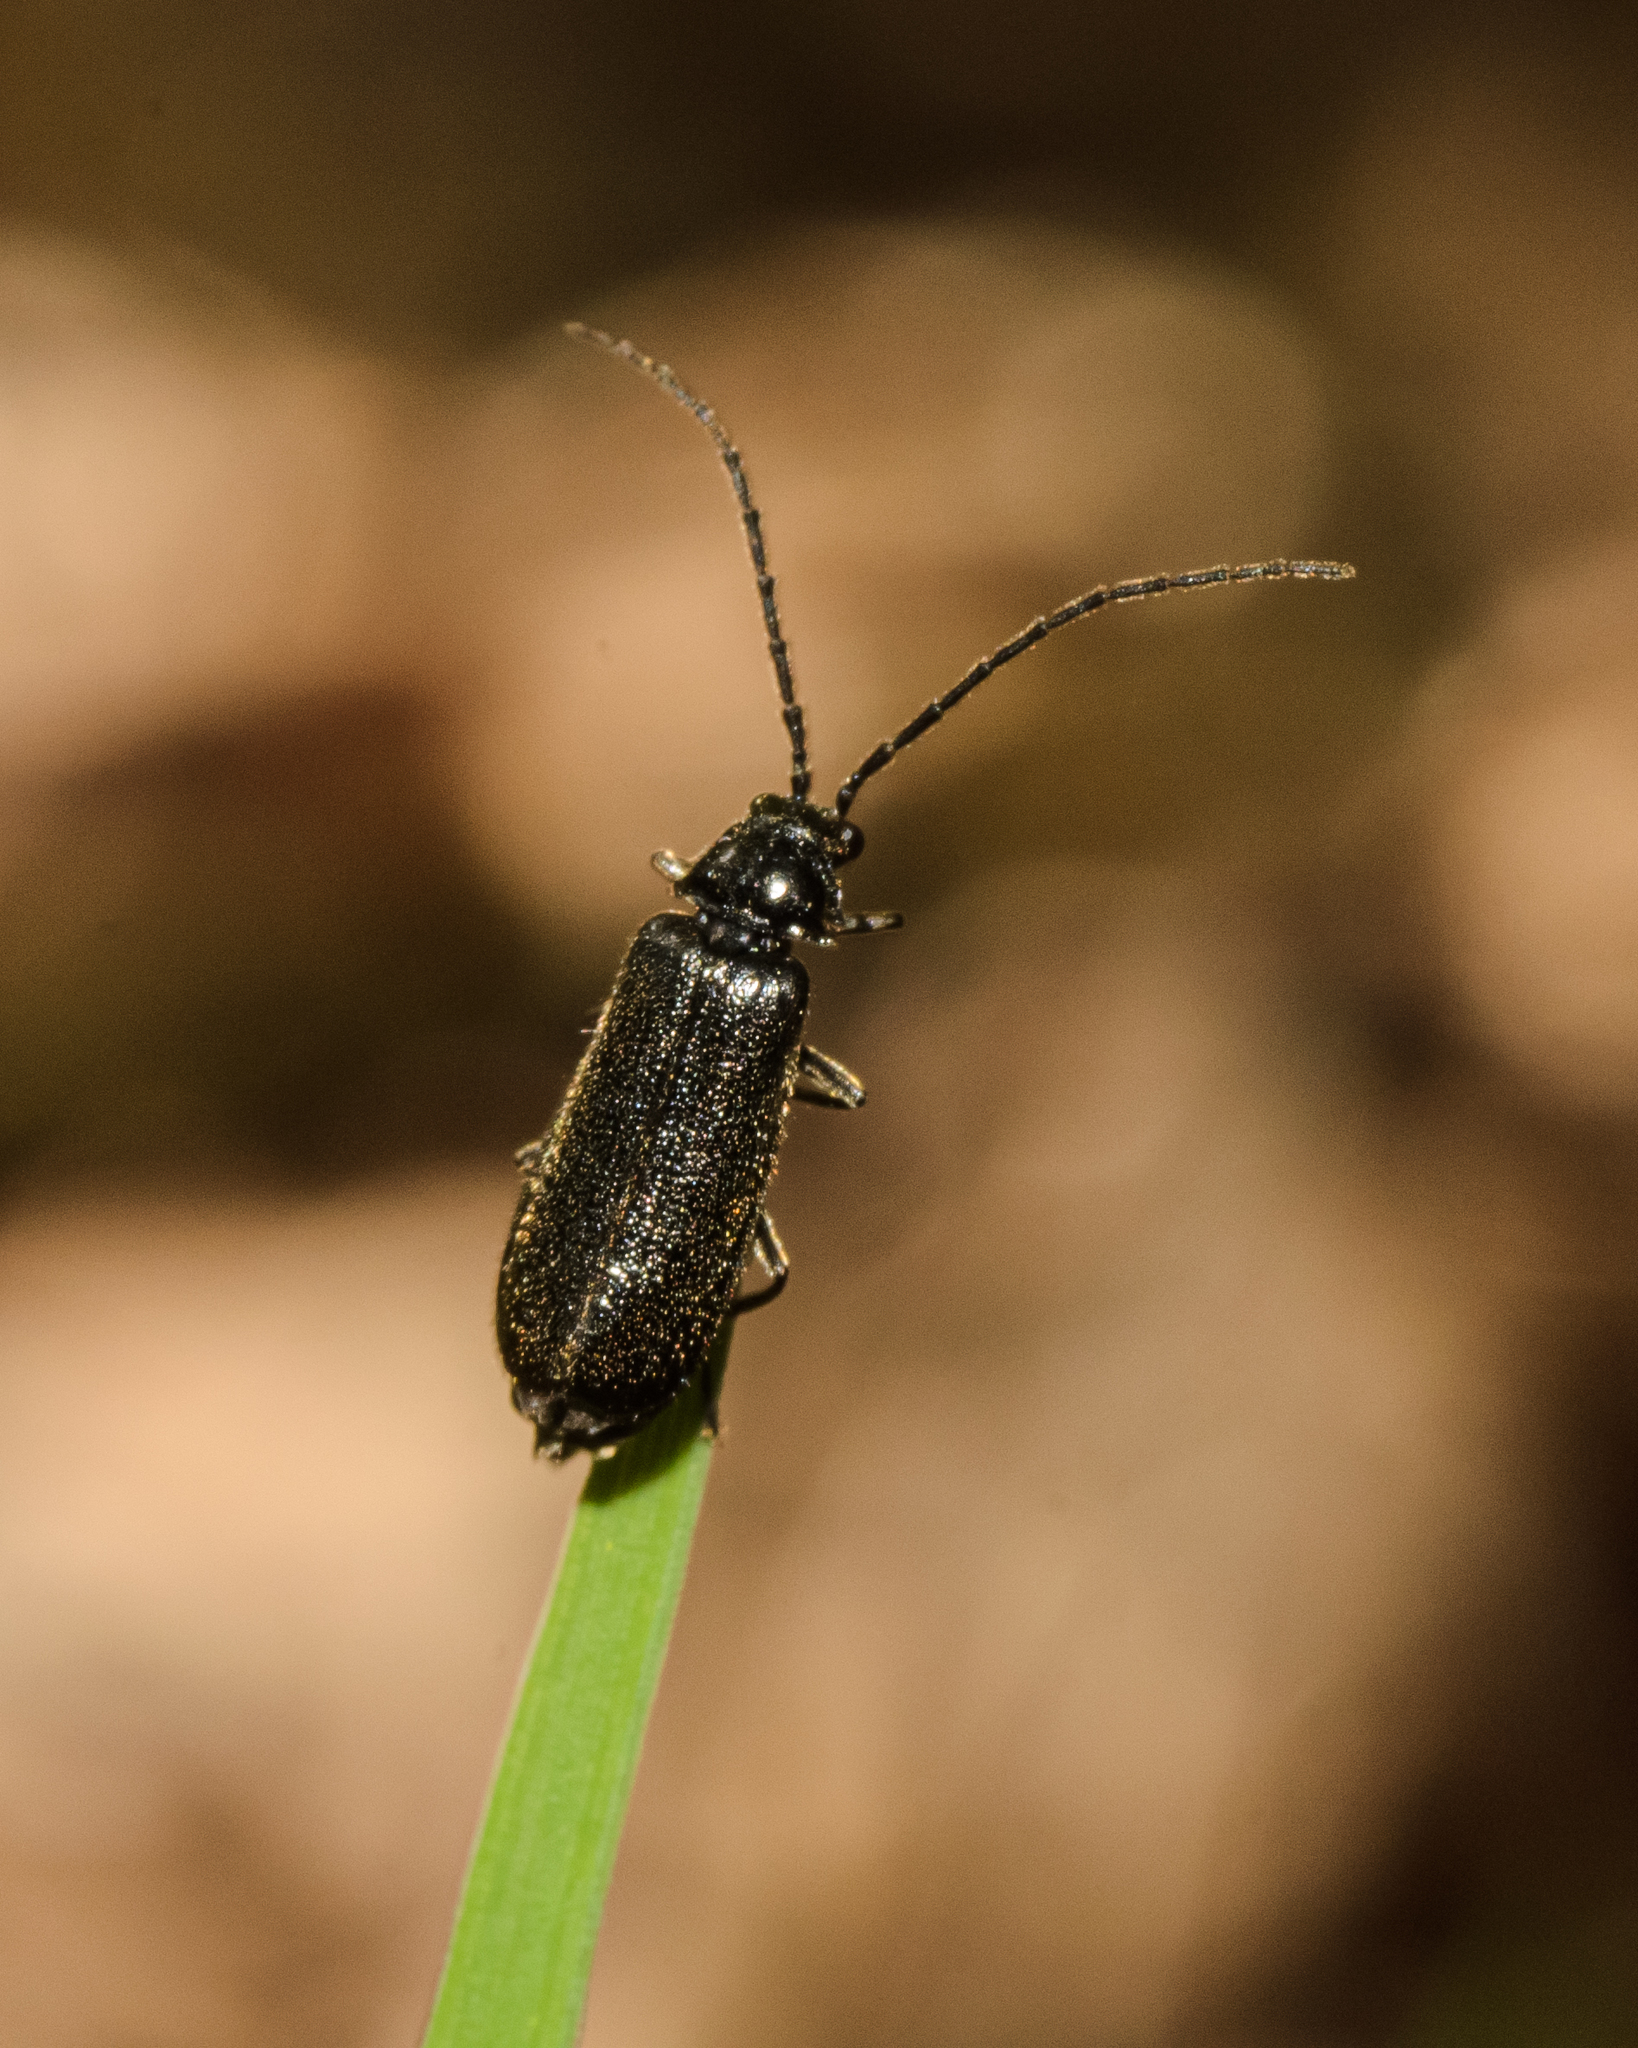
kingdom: Animalia
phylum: Arthropoda
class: Insecta
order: Coleoptera
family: Cantharidae
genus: Silis
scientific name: Silis nitidula
